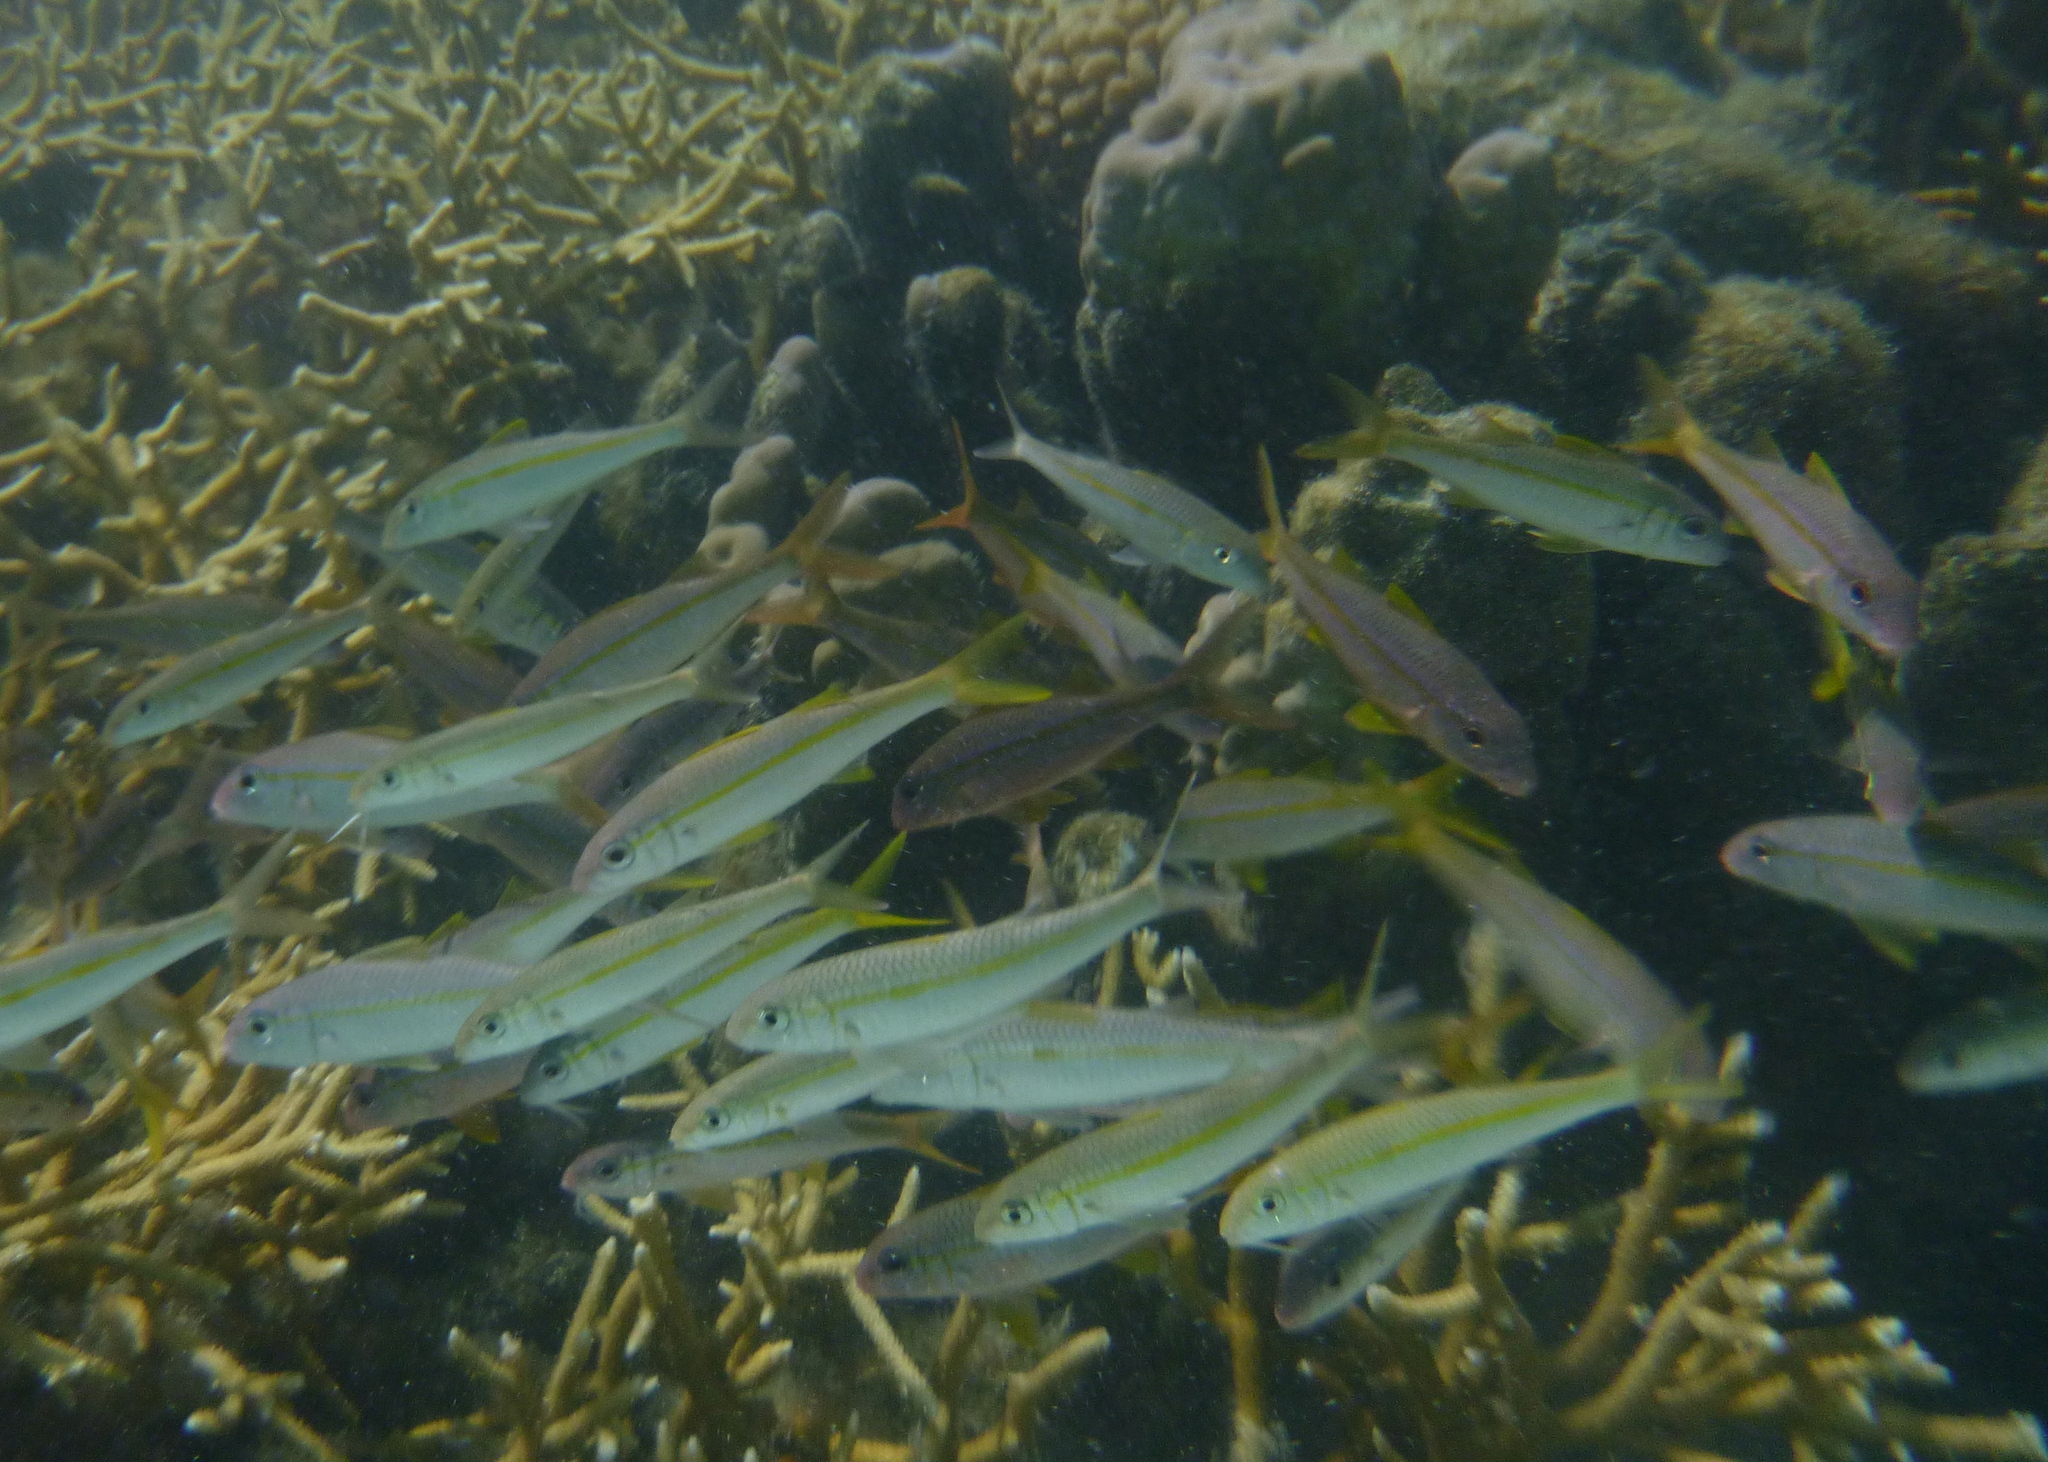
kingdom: Animalia
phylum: Chordata
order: Perciformes
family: Mullidae
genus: Mulloidichthys
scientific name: Mulloidichthys flavolineatus
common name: Yellowstripe goatfish
